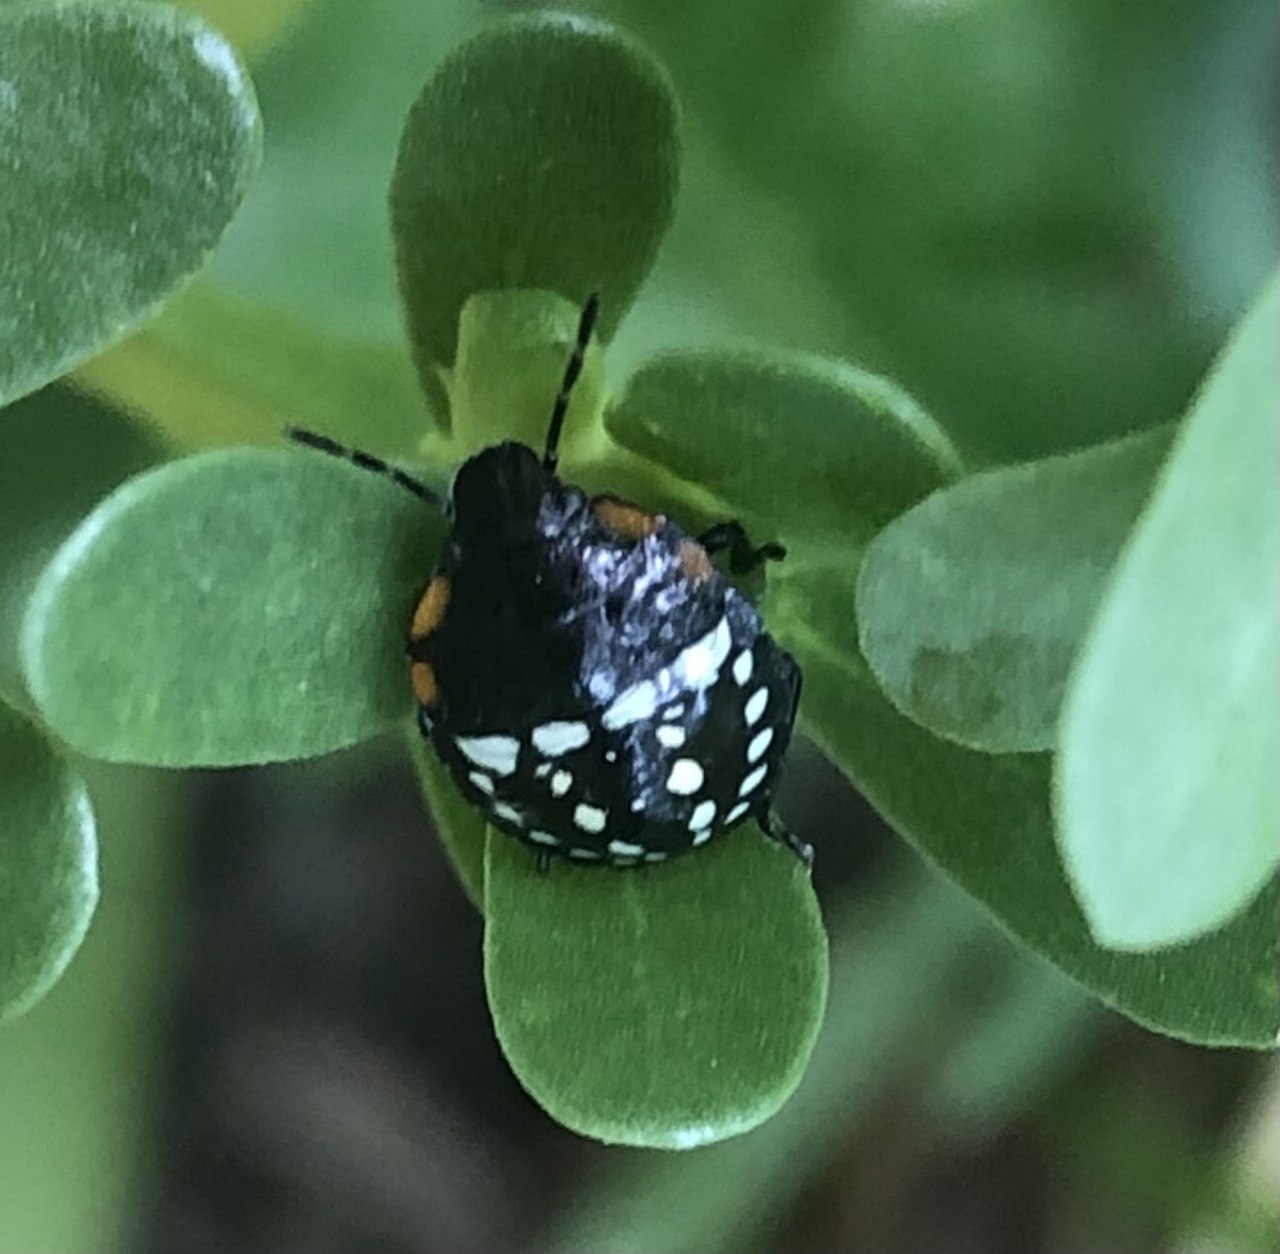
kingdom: Animalia
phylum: Arthropoda
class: Insecta
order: Hemiptera
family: Pentatomidae
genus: Nezara
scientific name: Nezara viridula
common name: Southern green stink bug
